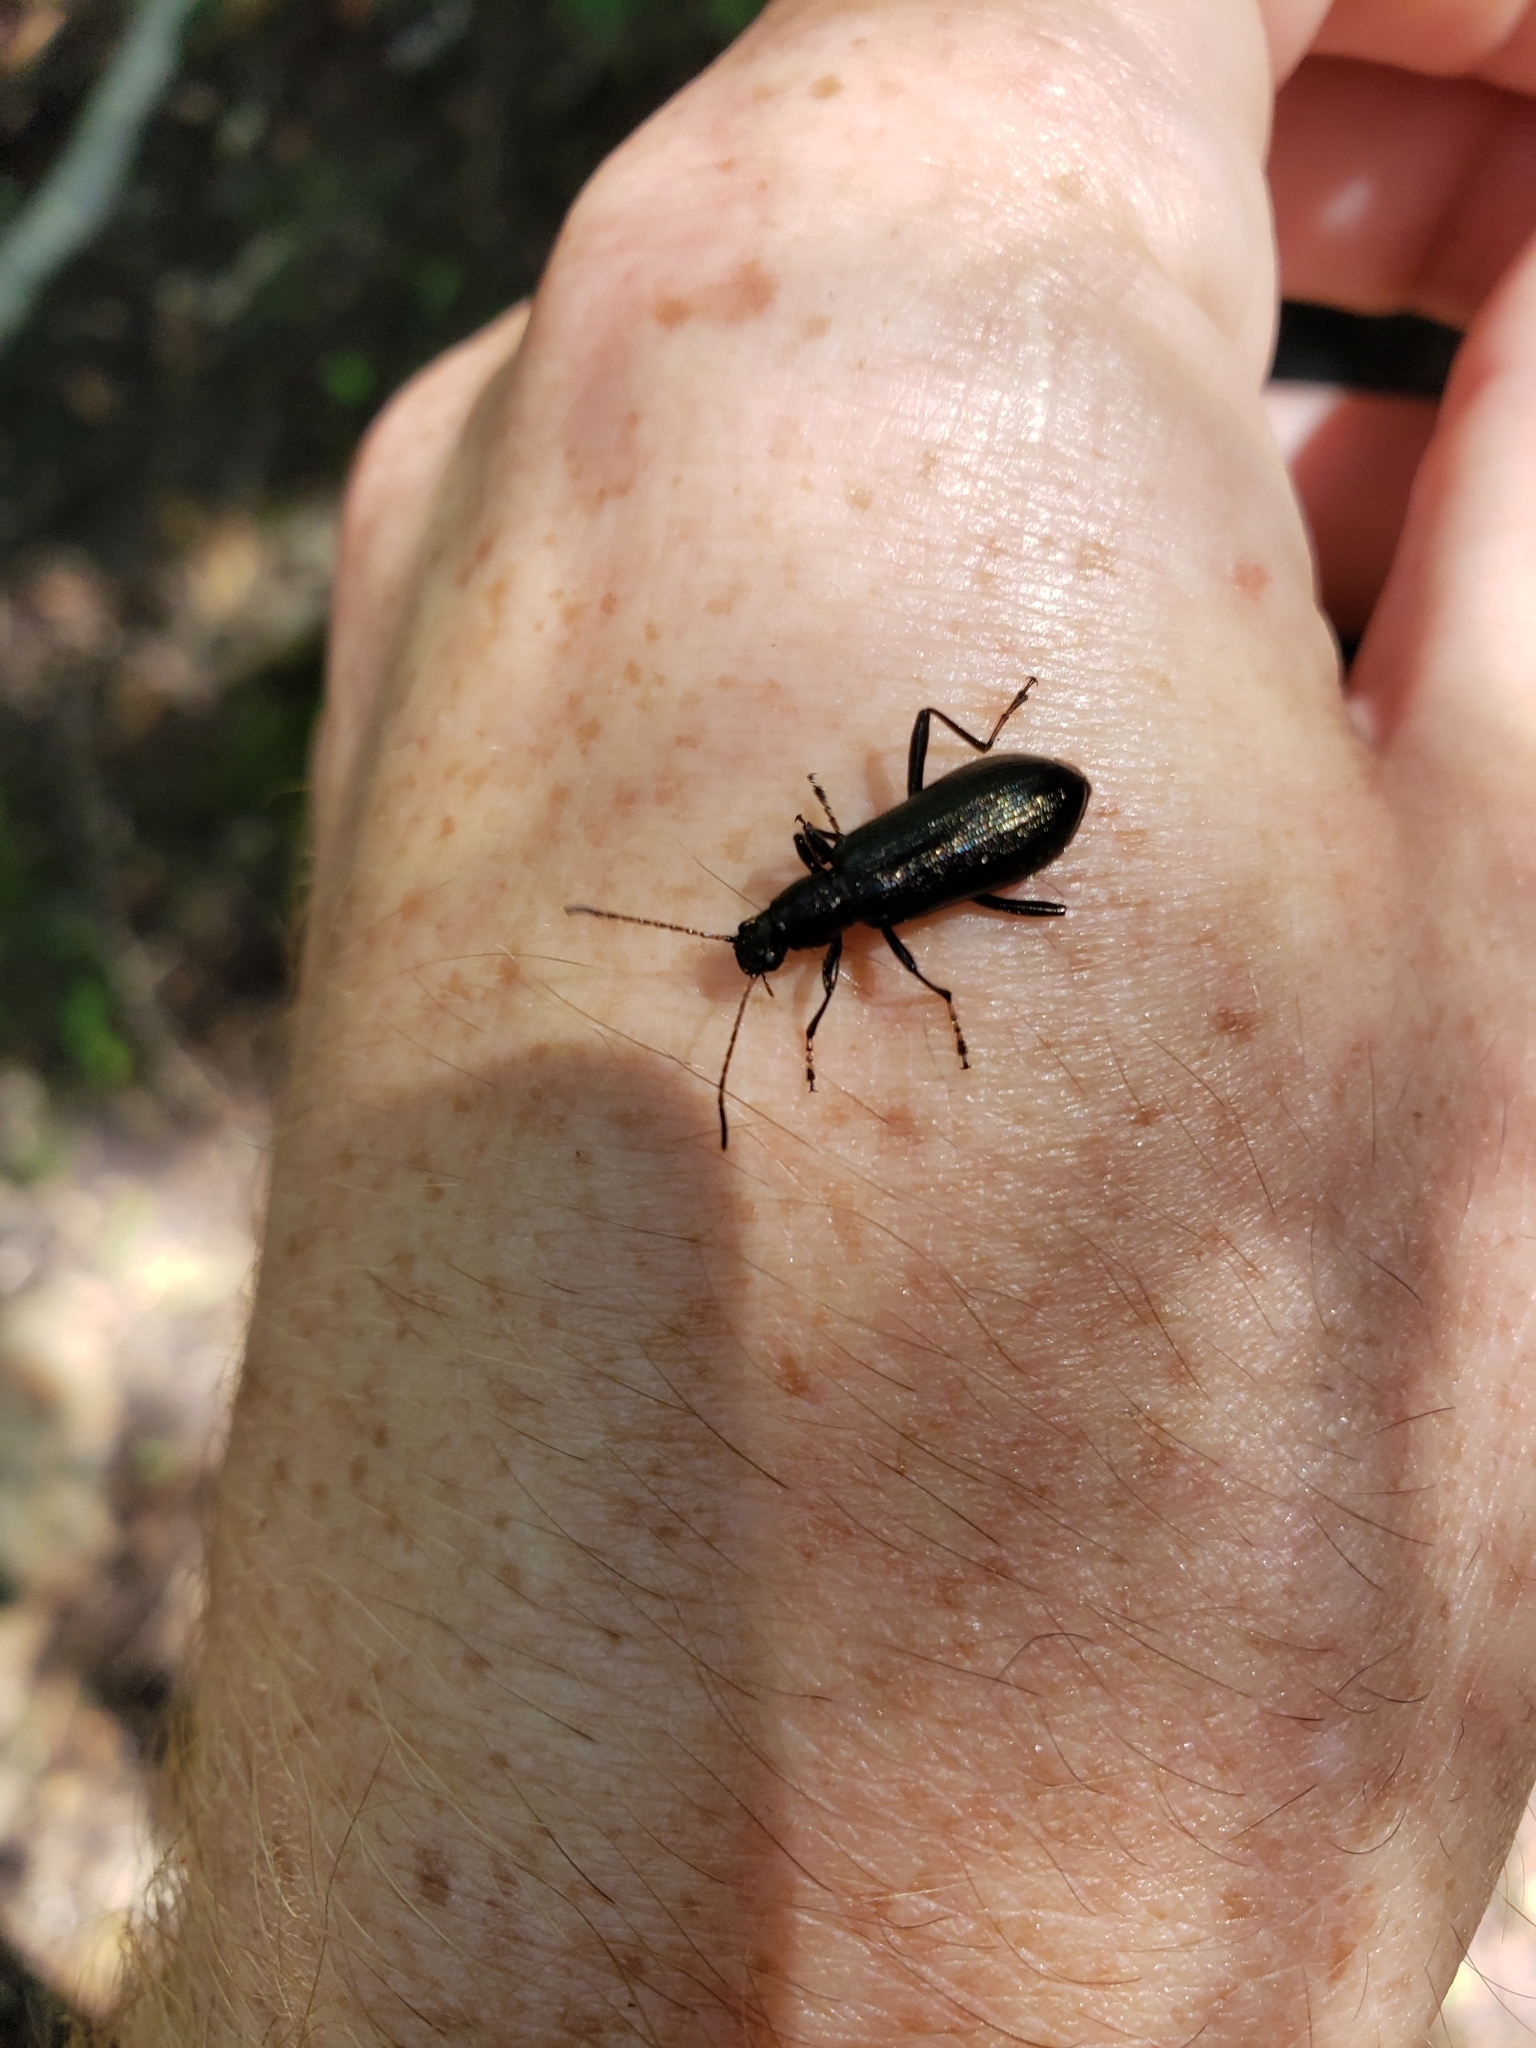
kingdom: Animalia
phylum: Arthropoda
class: Insecta
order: Coleoptera
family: Tenebrionidae
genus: Arthromacra
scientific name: Arthromacra aenea
